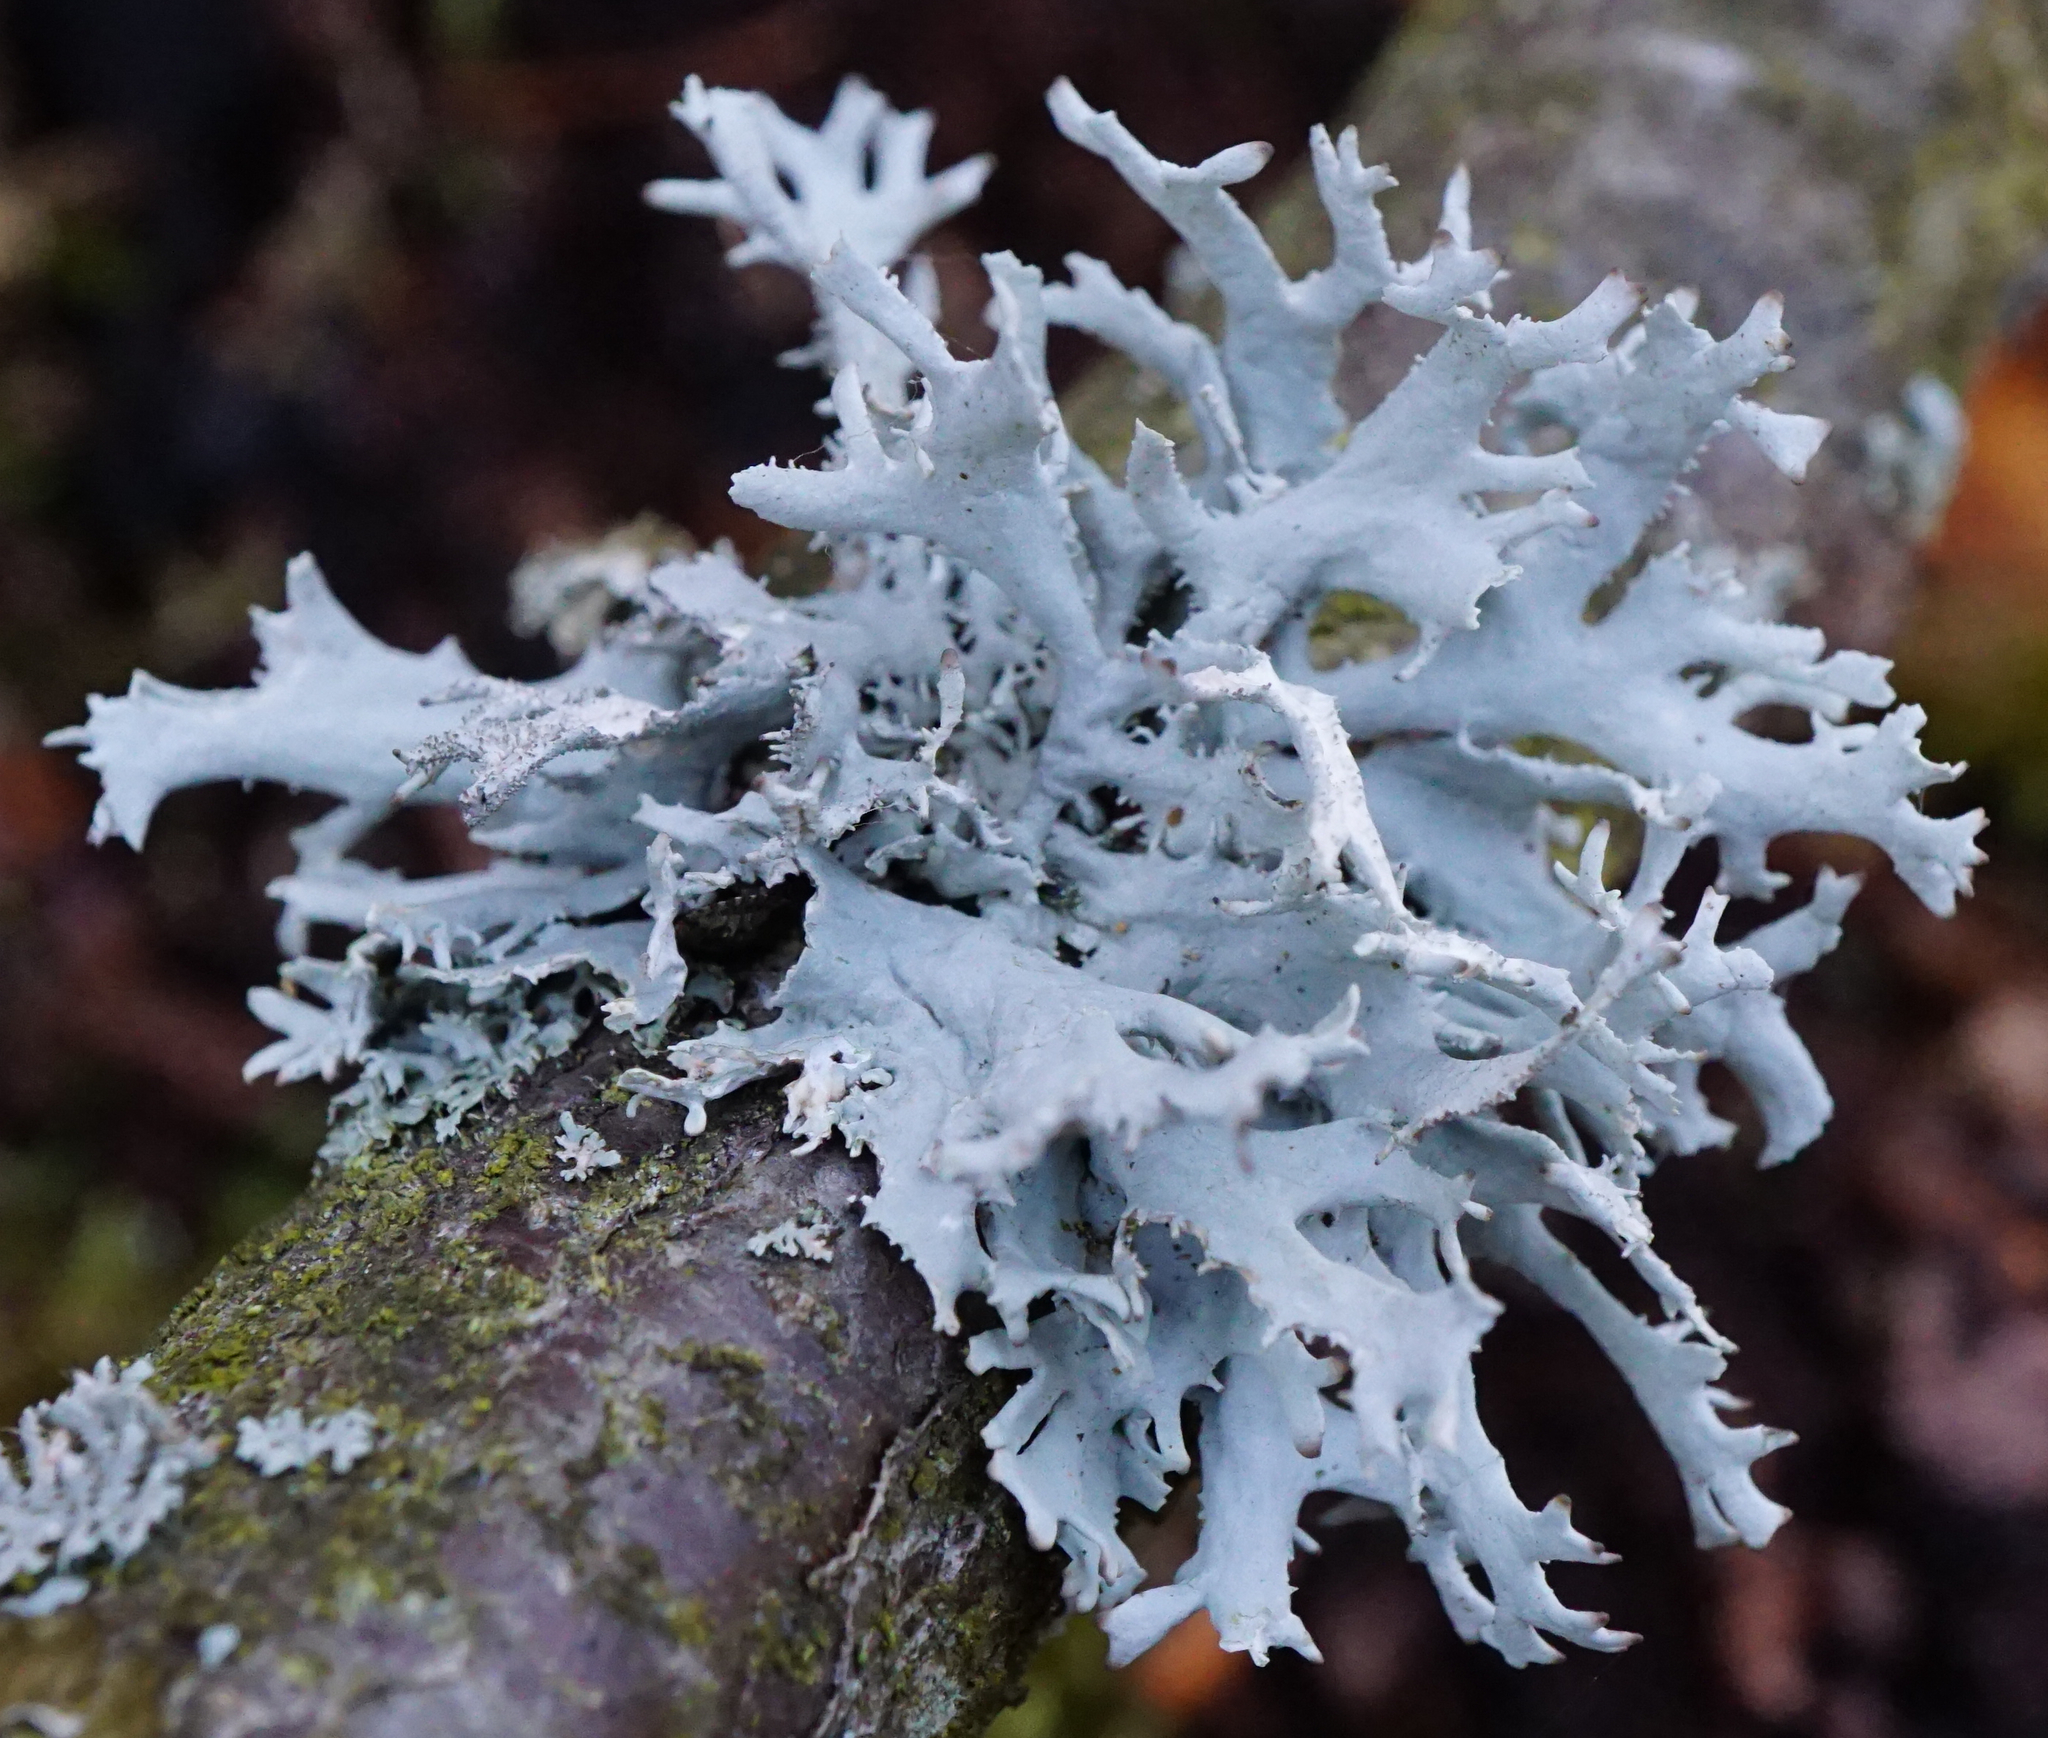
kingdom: Fungi
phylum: Ascomycota
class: Lecanoromycetes
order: Lecanorales
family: Parmeliaceae
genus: Pseudevernia
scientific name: Pseudevernia furfuracea
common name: Tree moss
